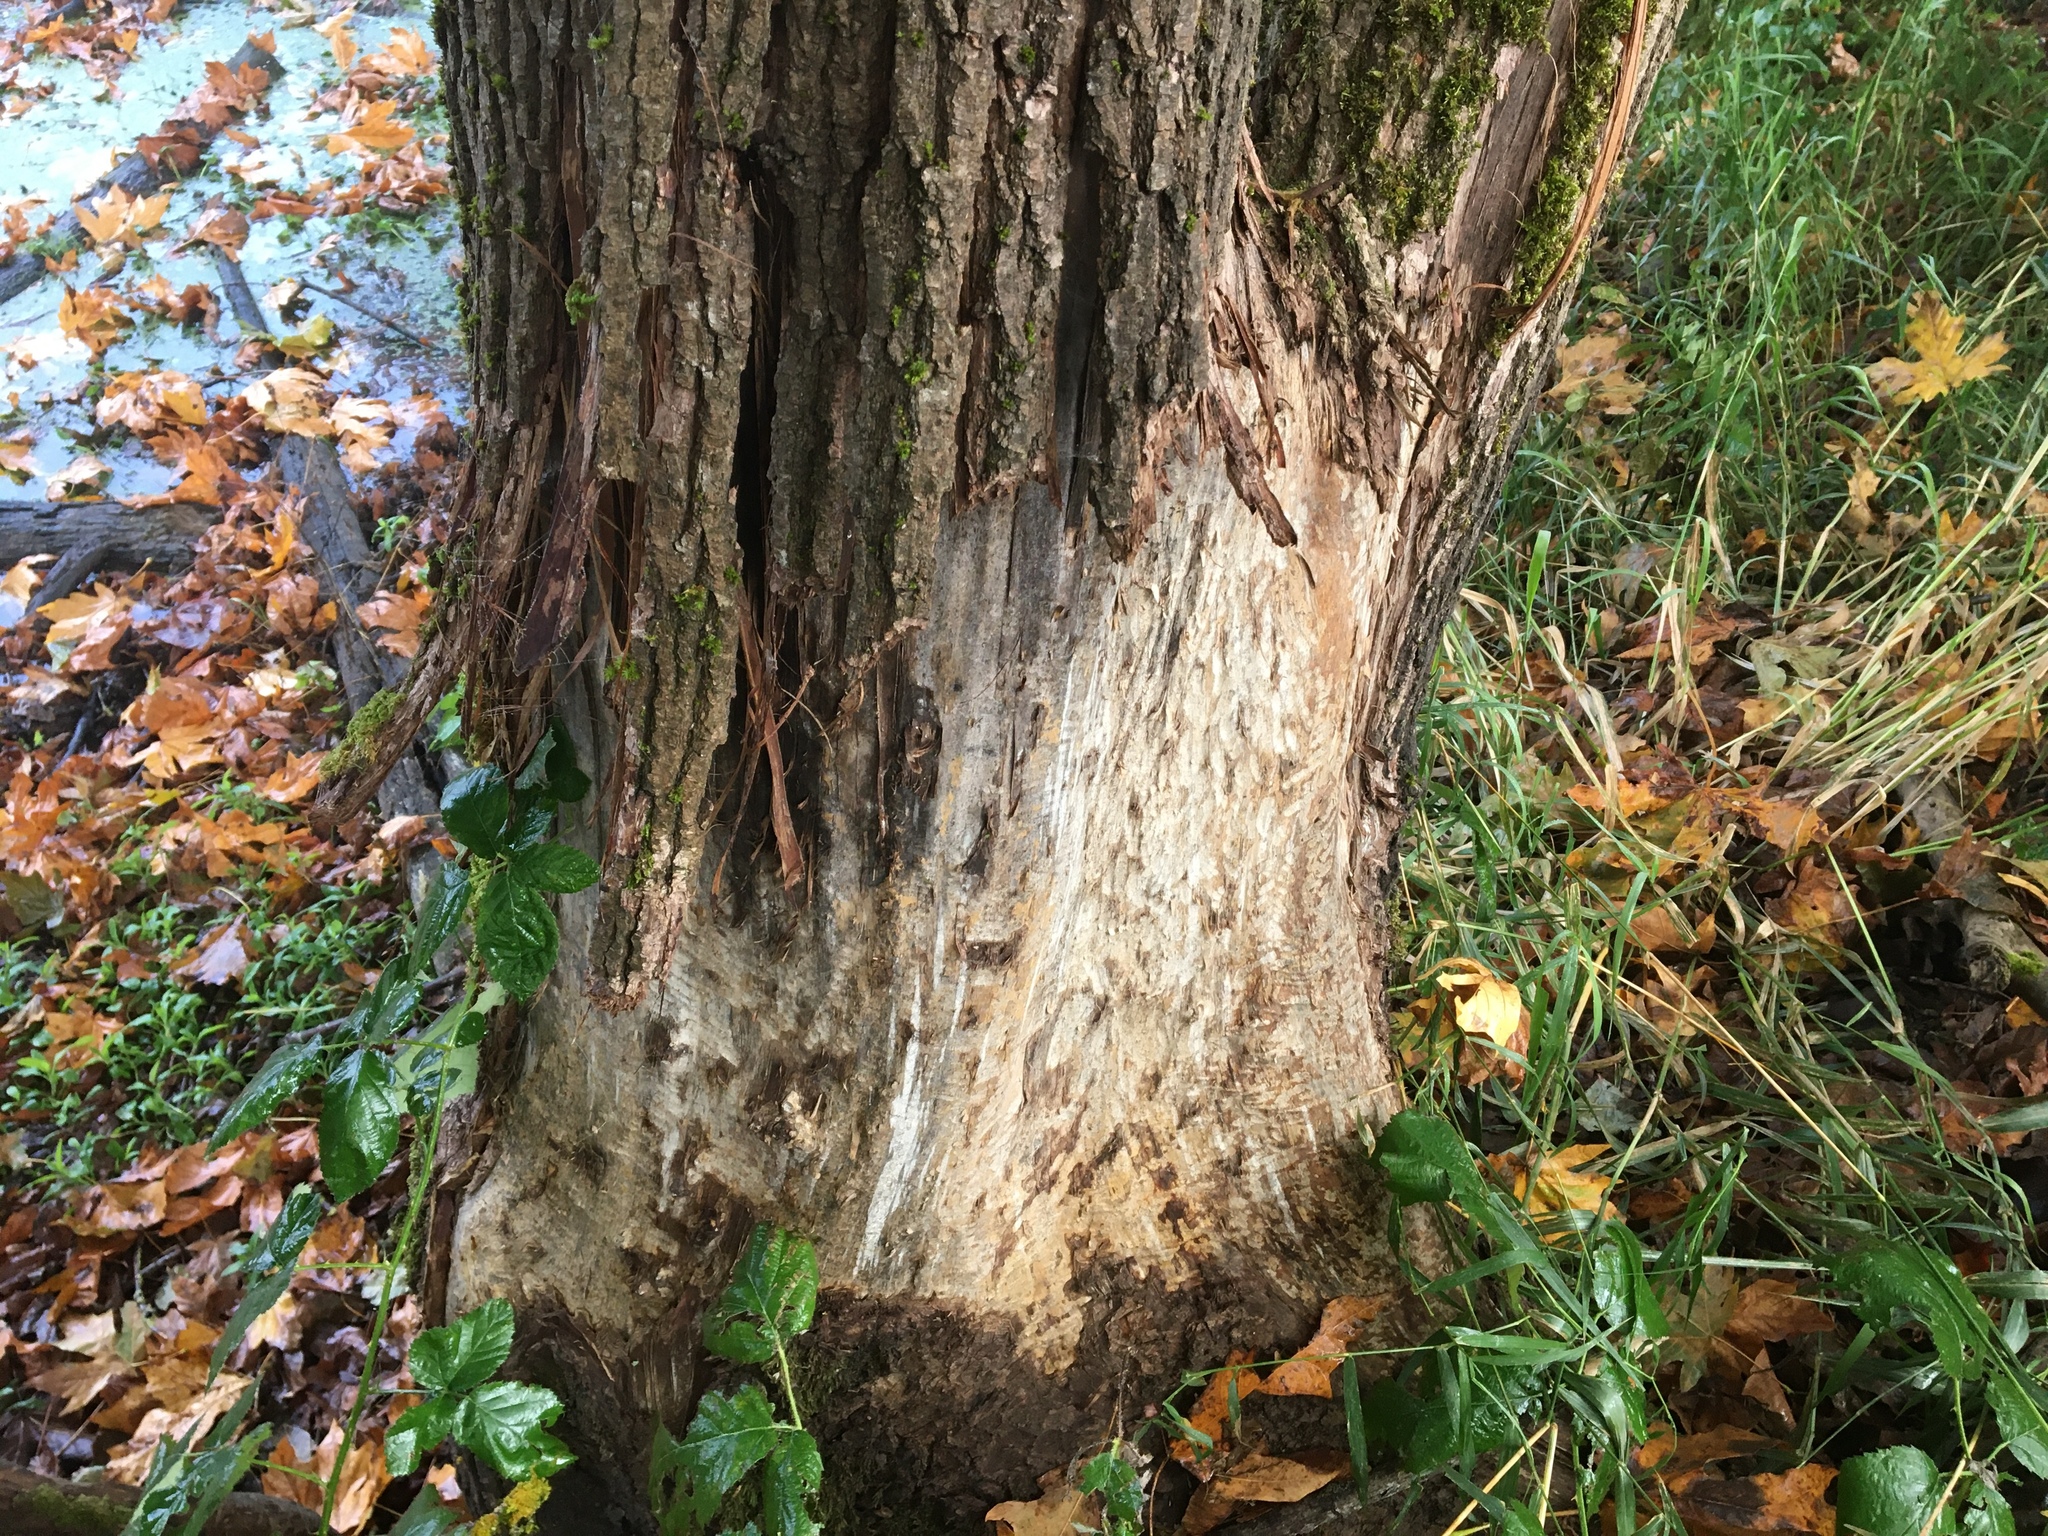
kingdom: Animalia
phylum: Chordata
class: Mammalia
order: Rodentia
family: Castoridae
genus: Castor
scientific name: Castor canadensis
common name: American beaver
